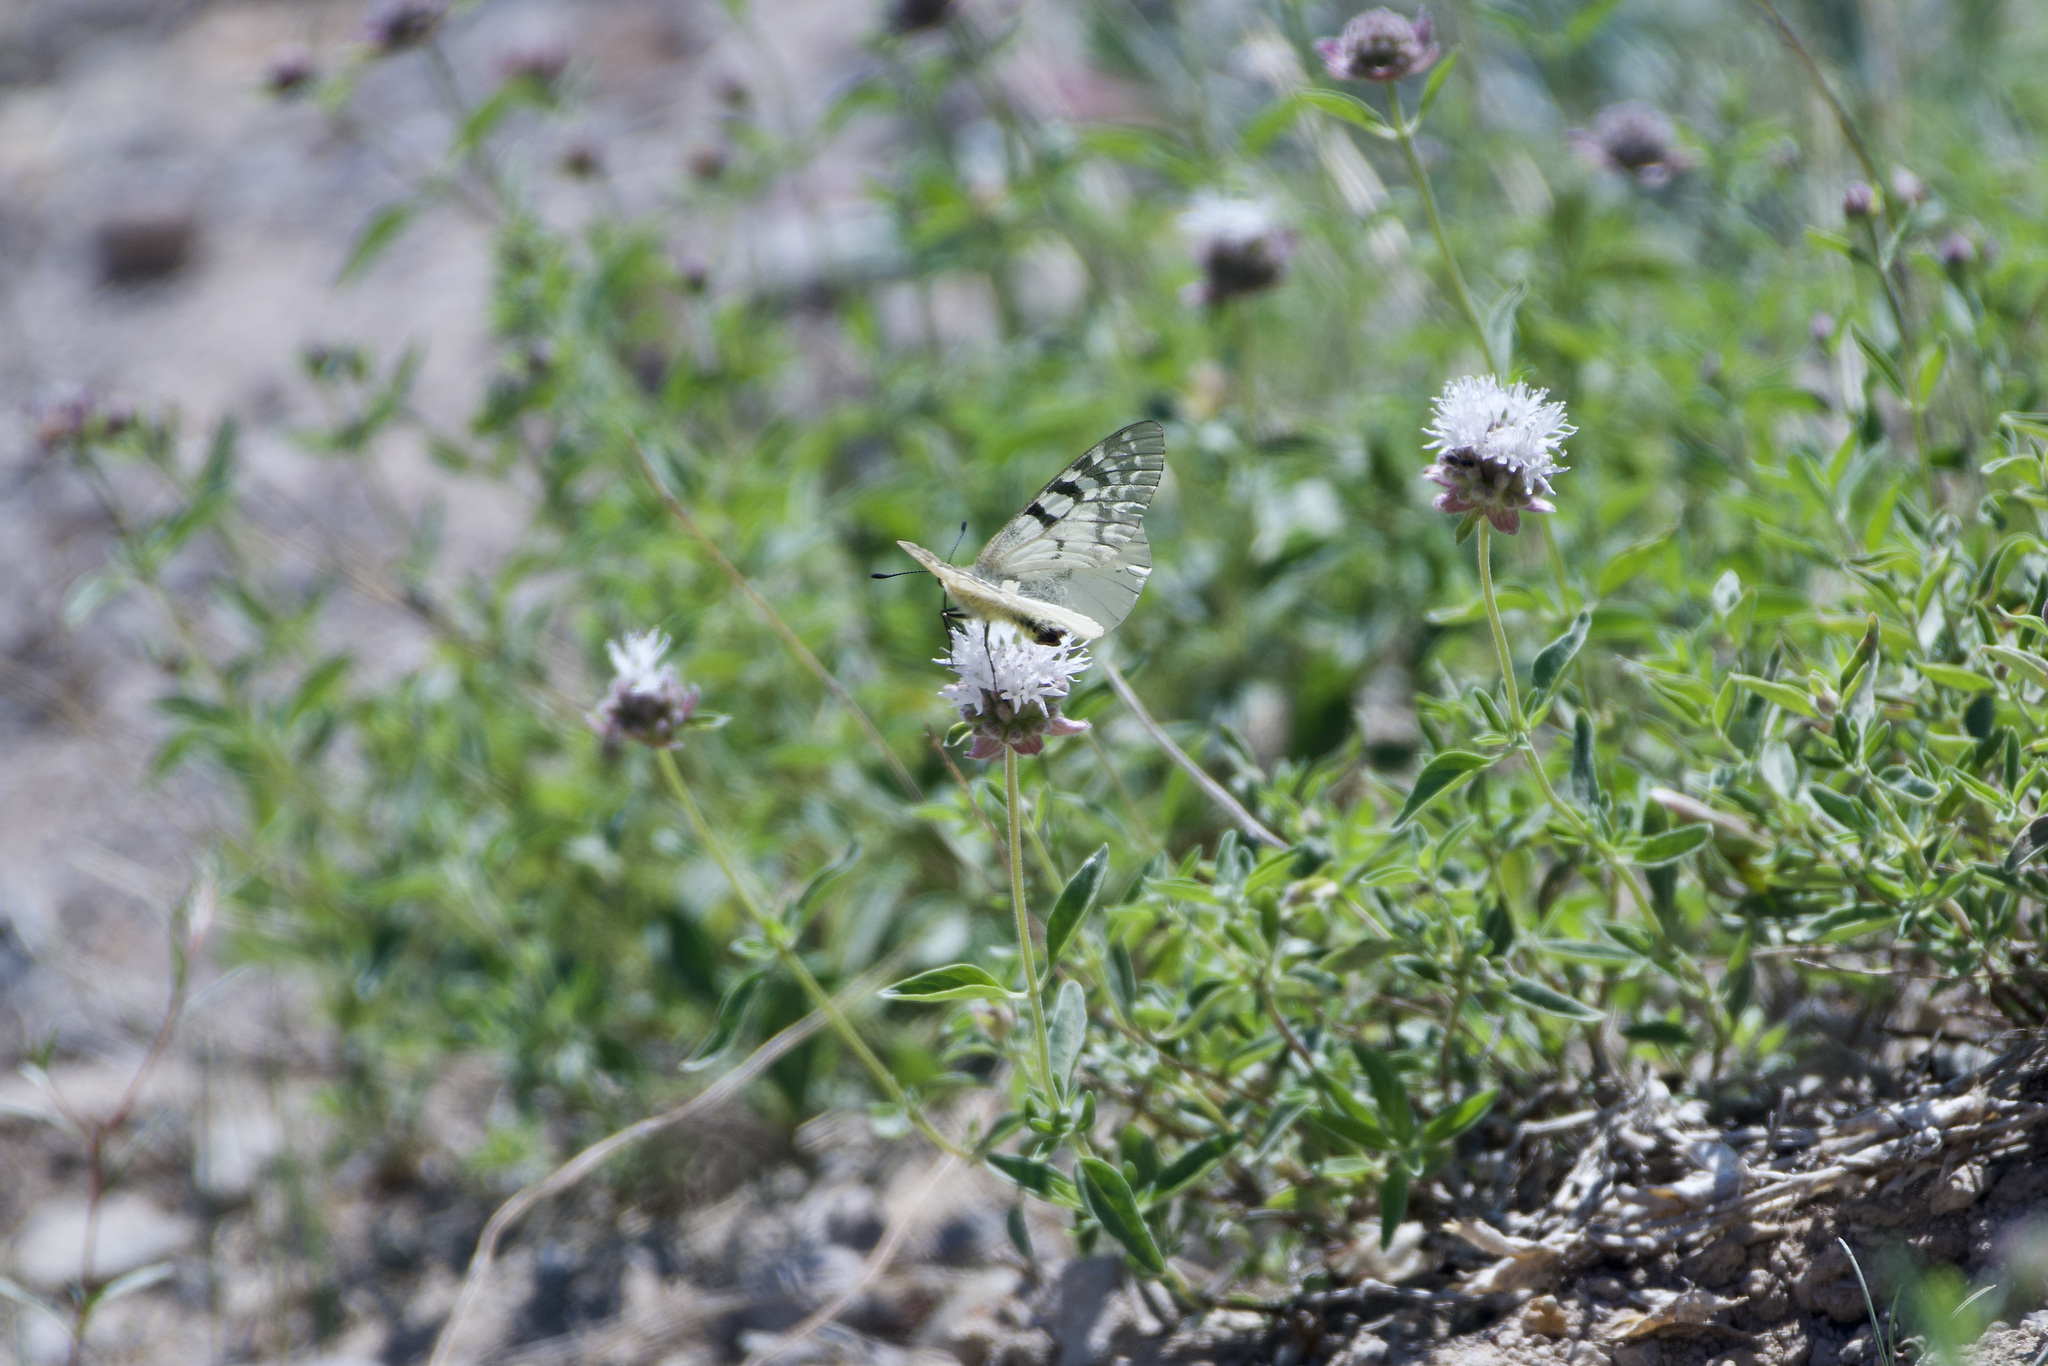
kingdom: Animalia
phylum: Arthropoda
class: Insecta
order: Lepidoptera
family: Papilionidae
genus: Parnassius
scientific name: Parnassius clodius
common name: American apollo
